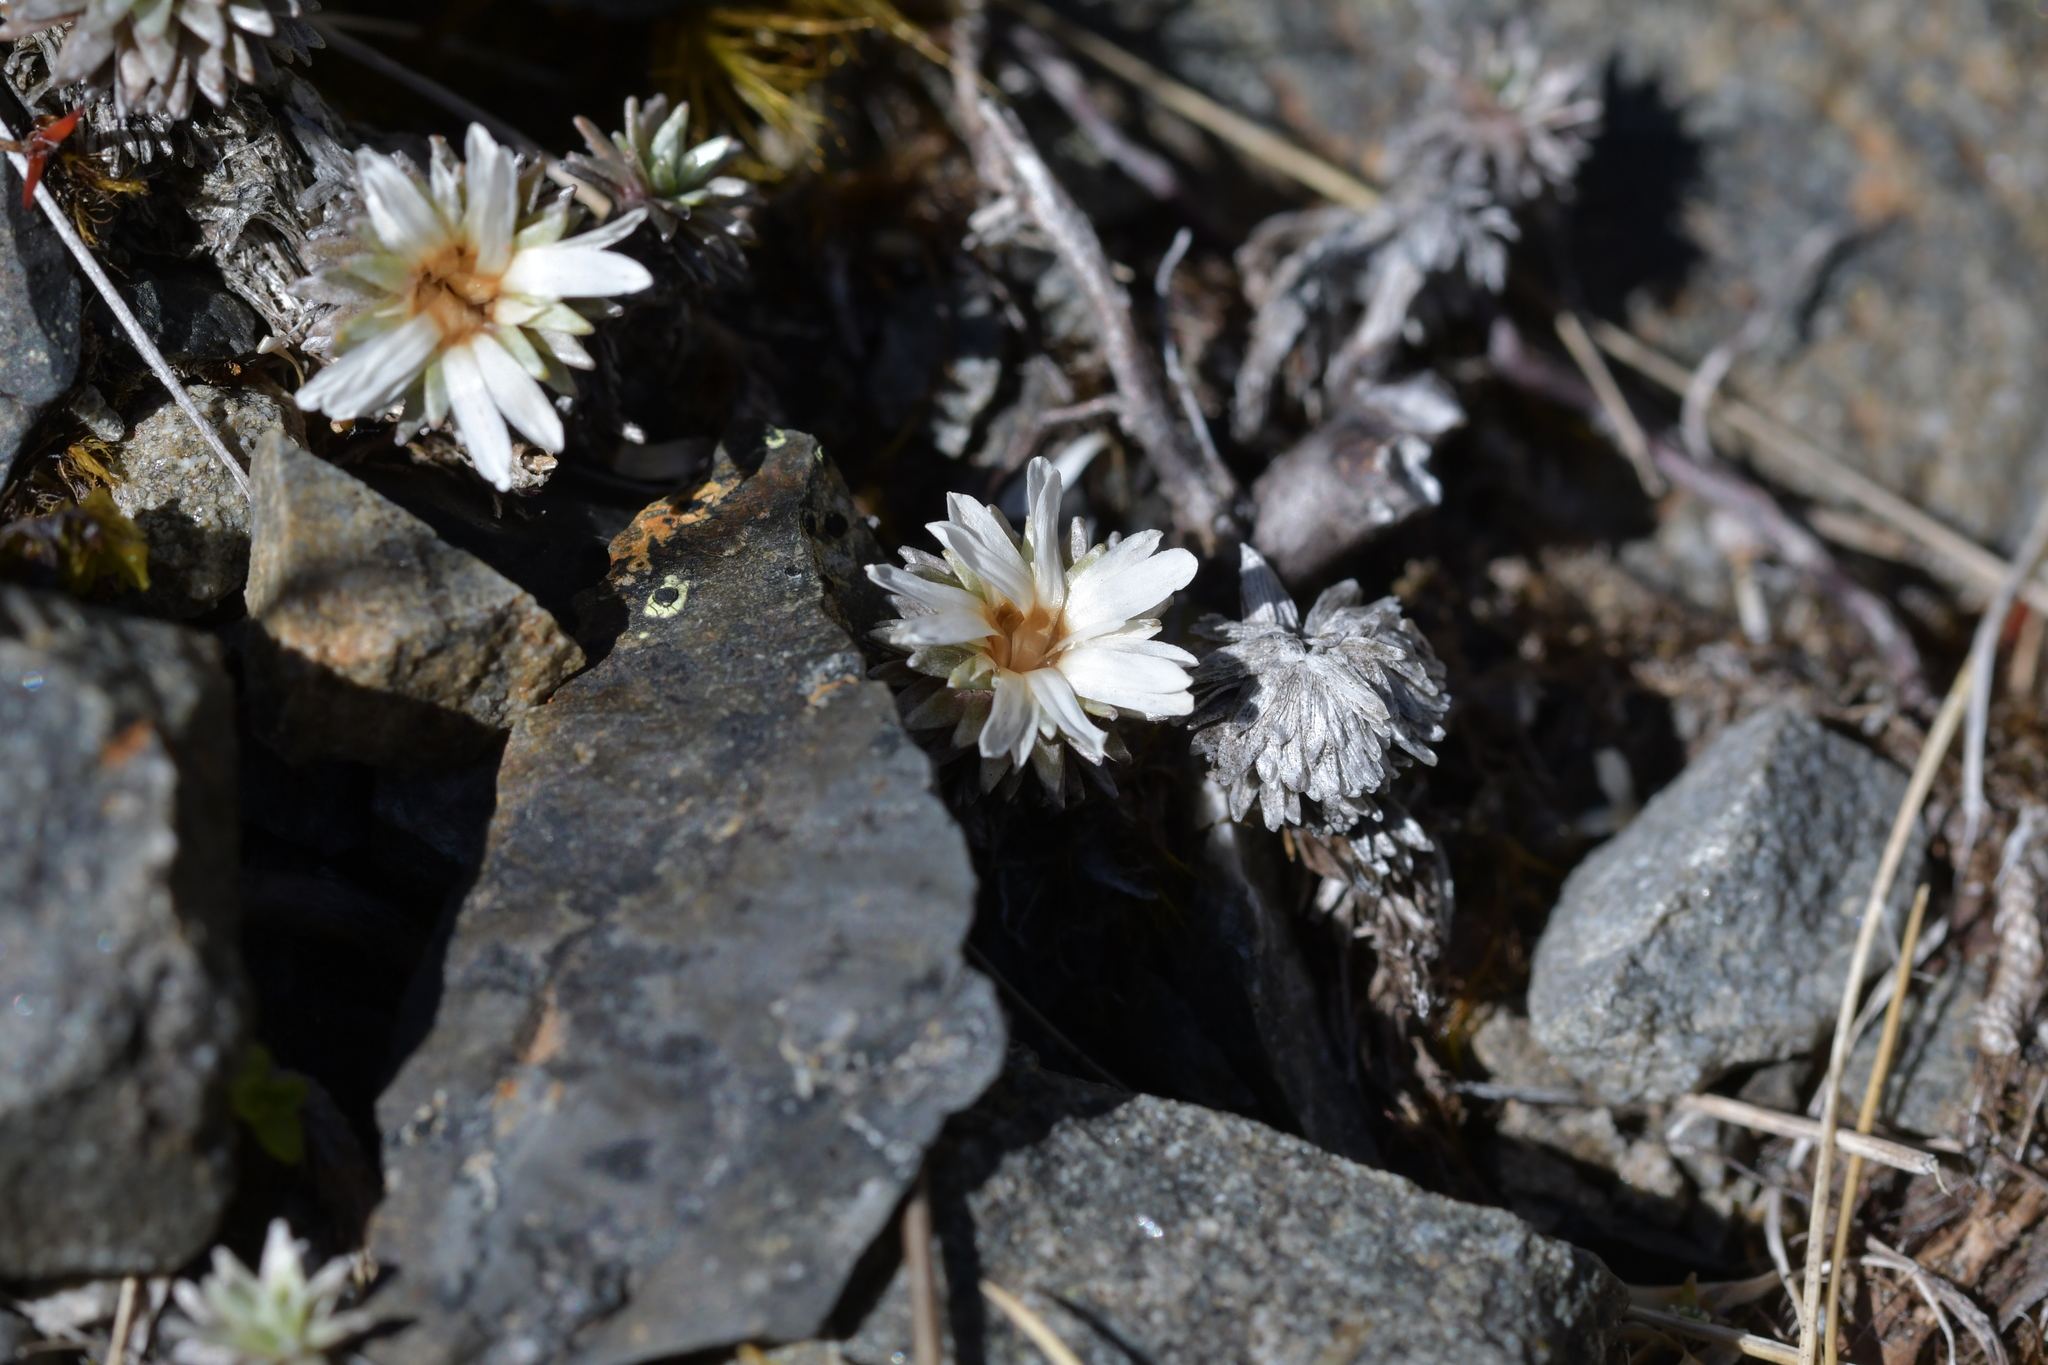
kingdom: Plantae
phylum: Tracheophyta
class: Magnoliopsida
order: Asterales
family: Asteraceae
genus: Raoulia
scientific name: Raoulia grandiflora
